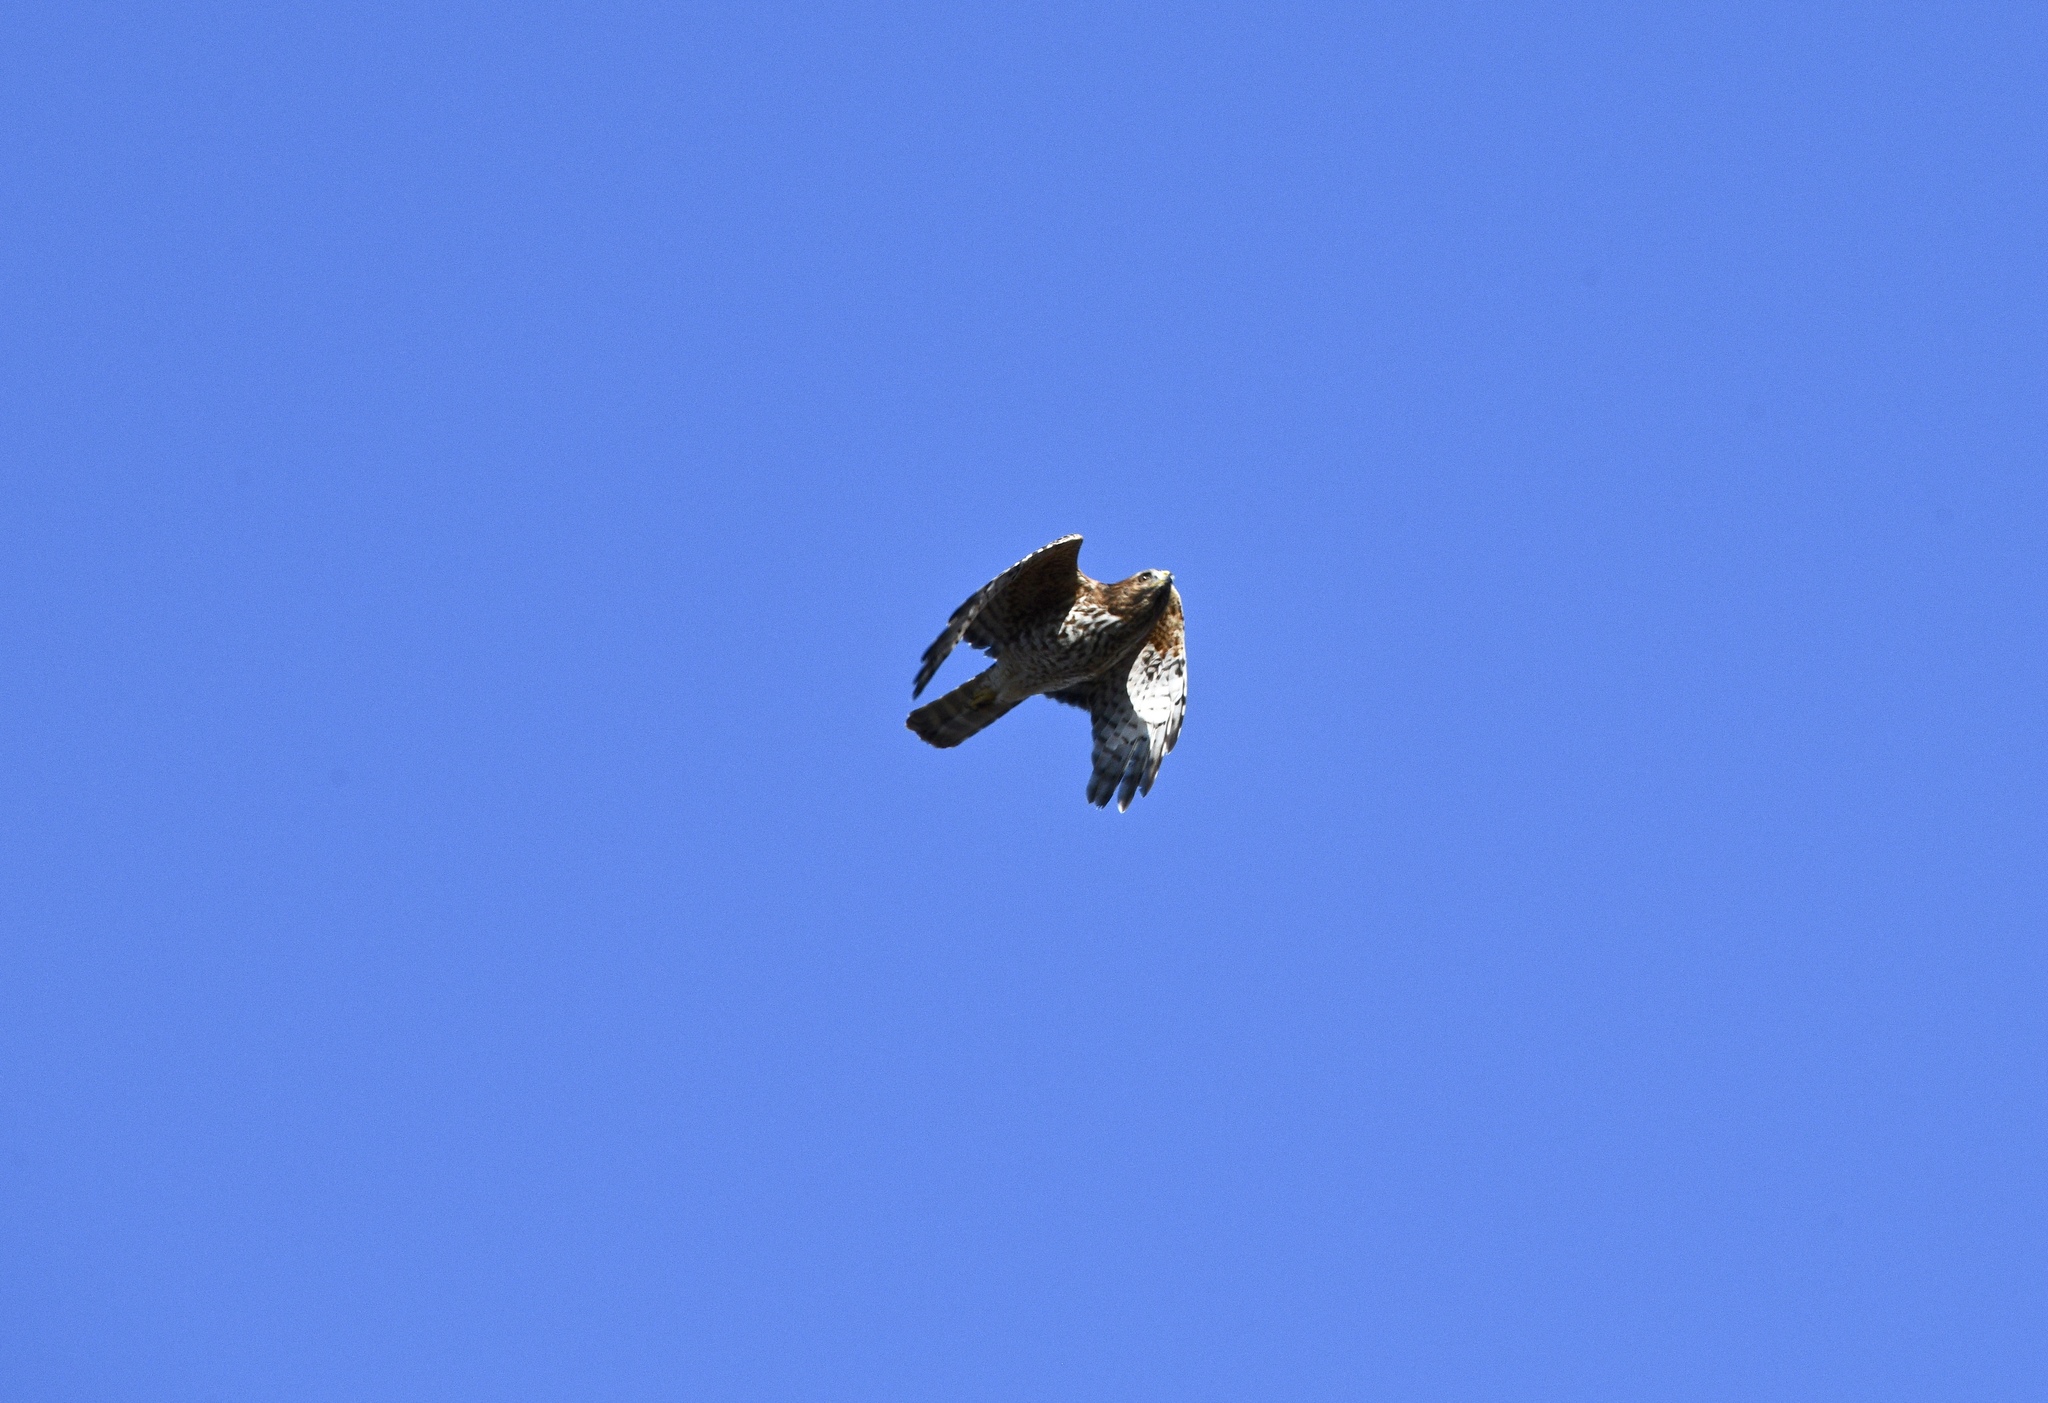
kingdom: Animalia
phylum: Chordata
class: Aves
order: Accipitriformes
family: Accipitridae
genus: Buteo
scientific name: Buteo lineatus
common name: Red-shouldered hawk
